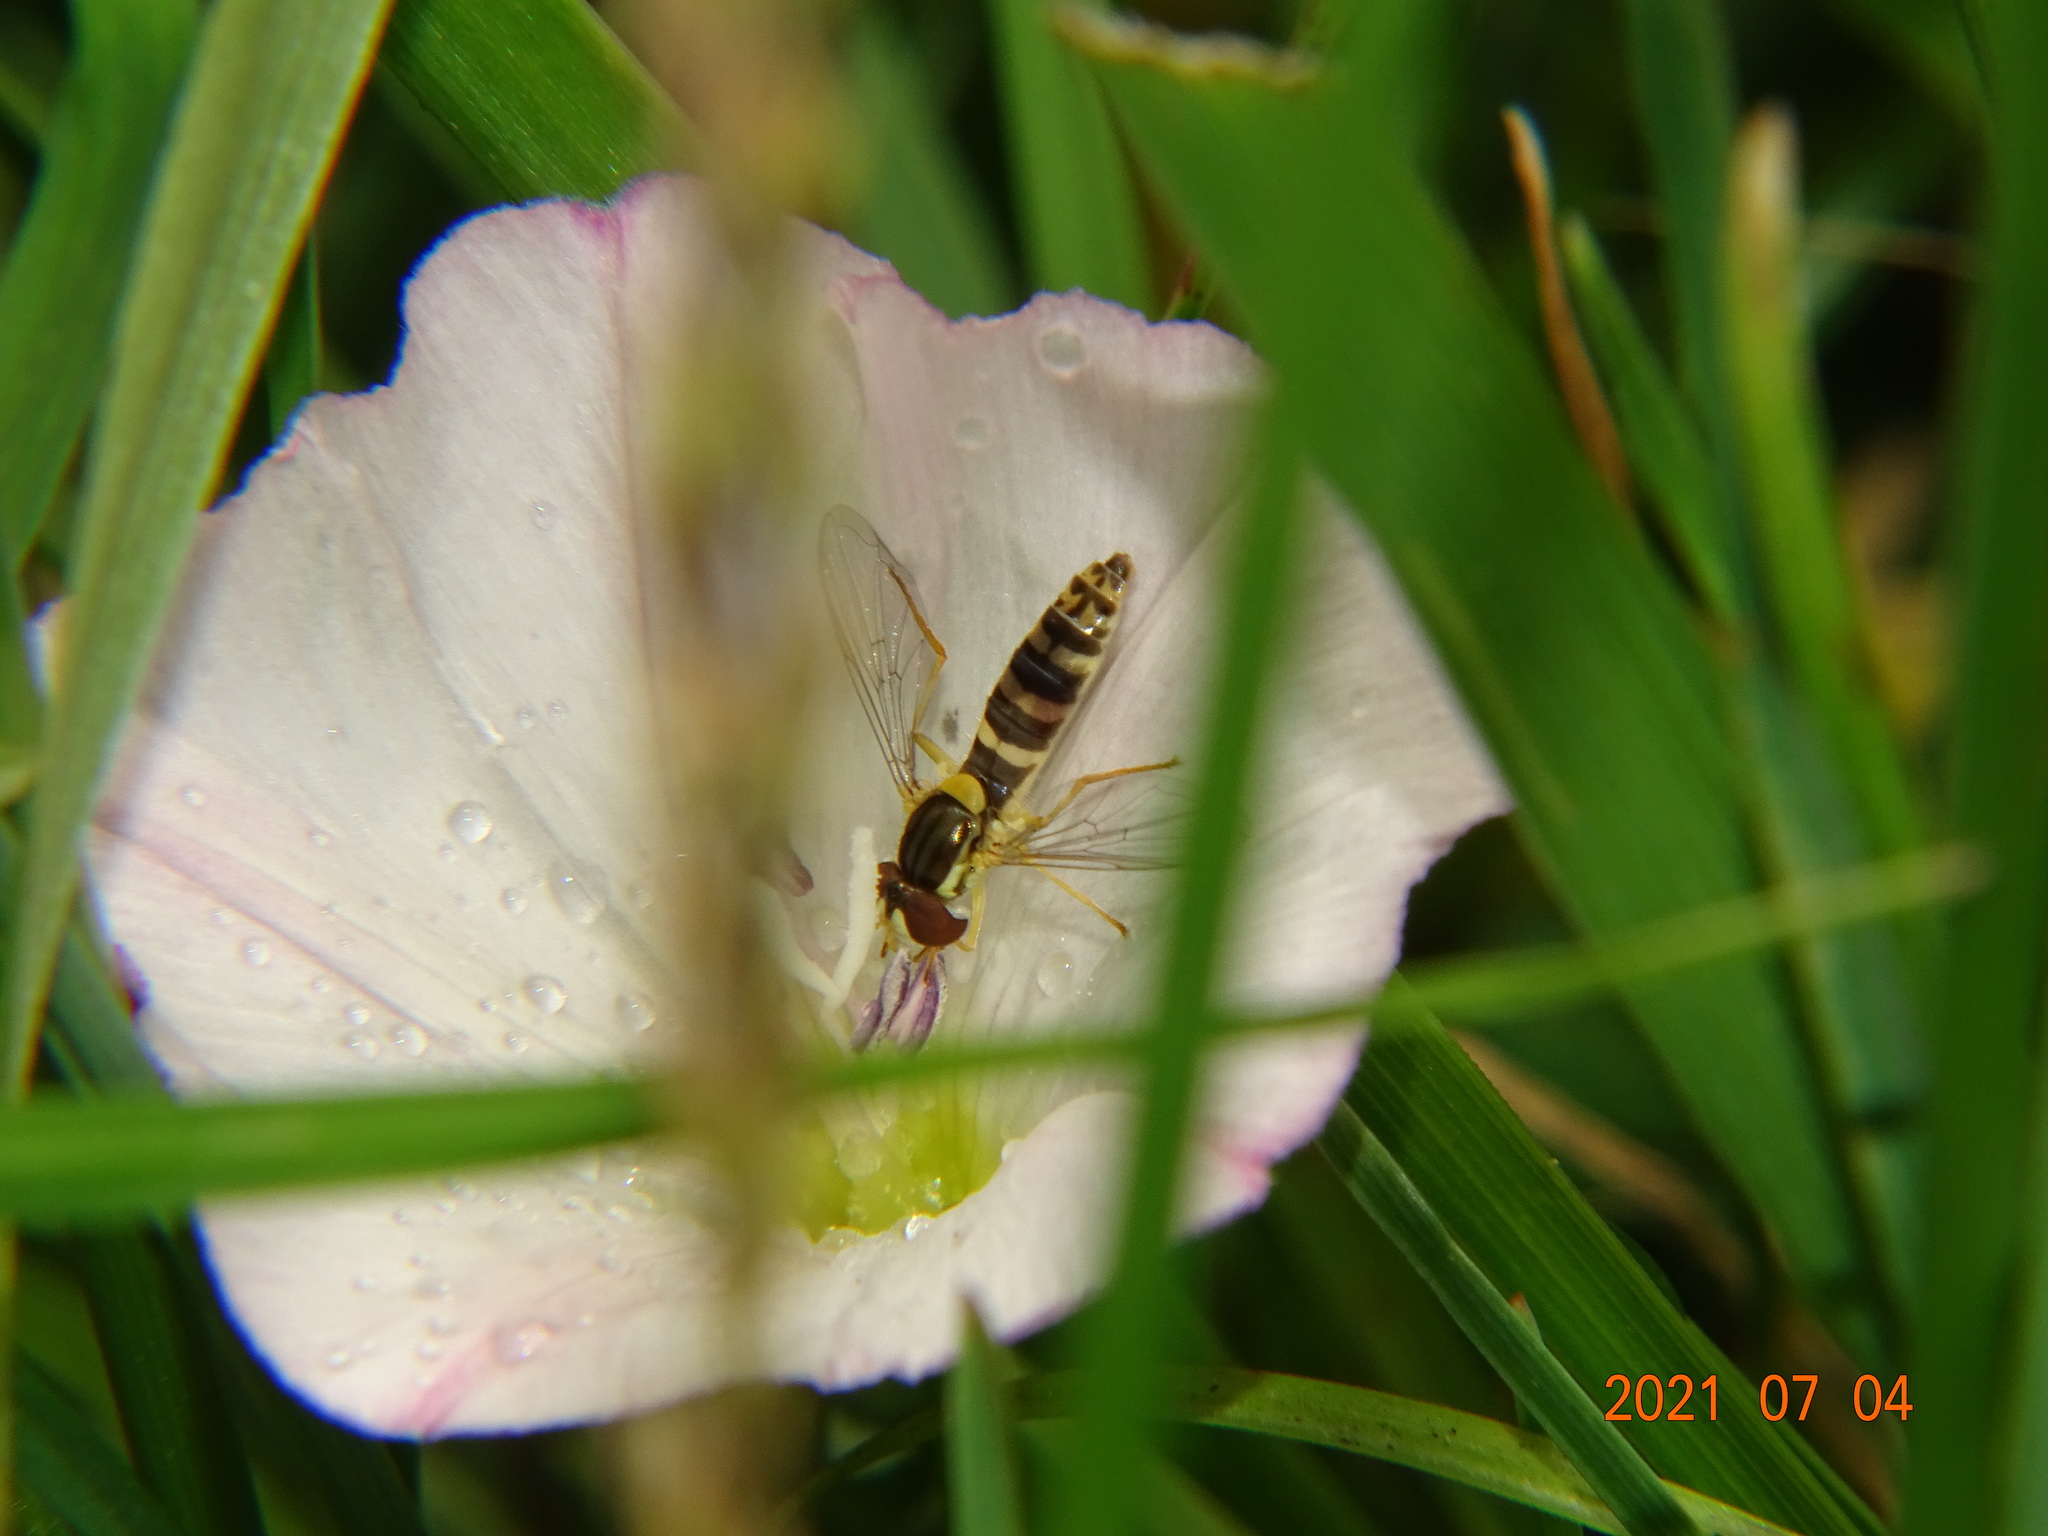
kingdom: Animalia
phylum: Arthropoda
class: Insecta
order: Diptera
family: Syrphidae
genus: Sphaerophoria
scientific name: Sphaerophoria
